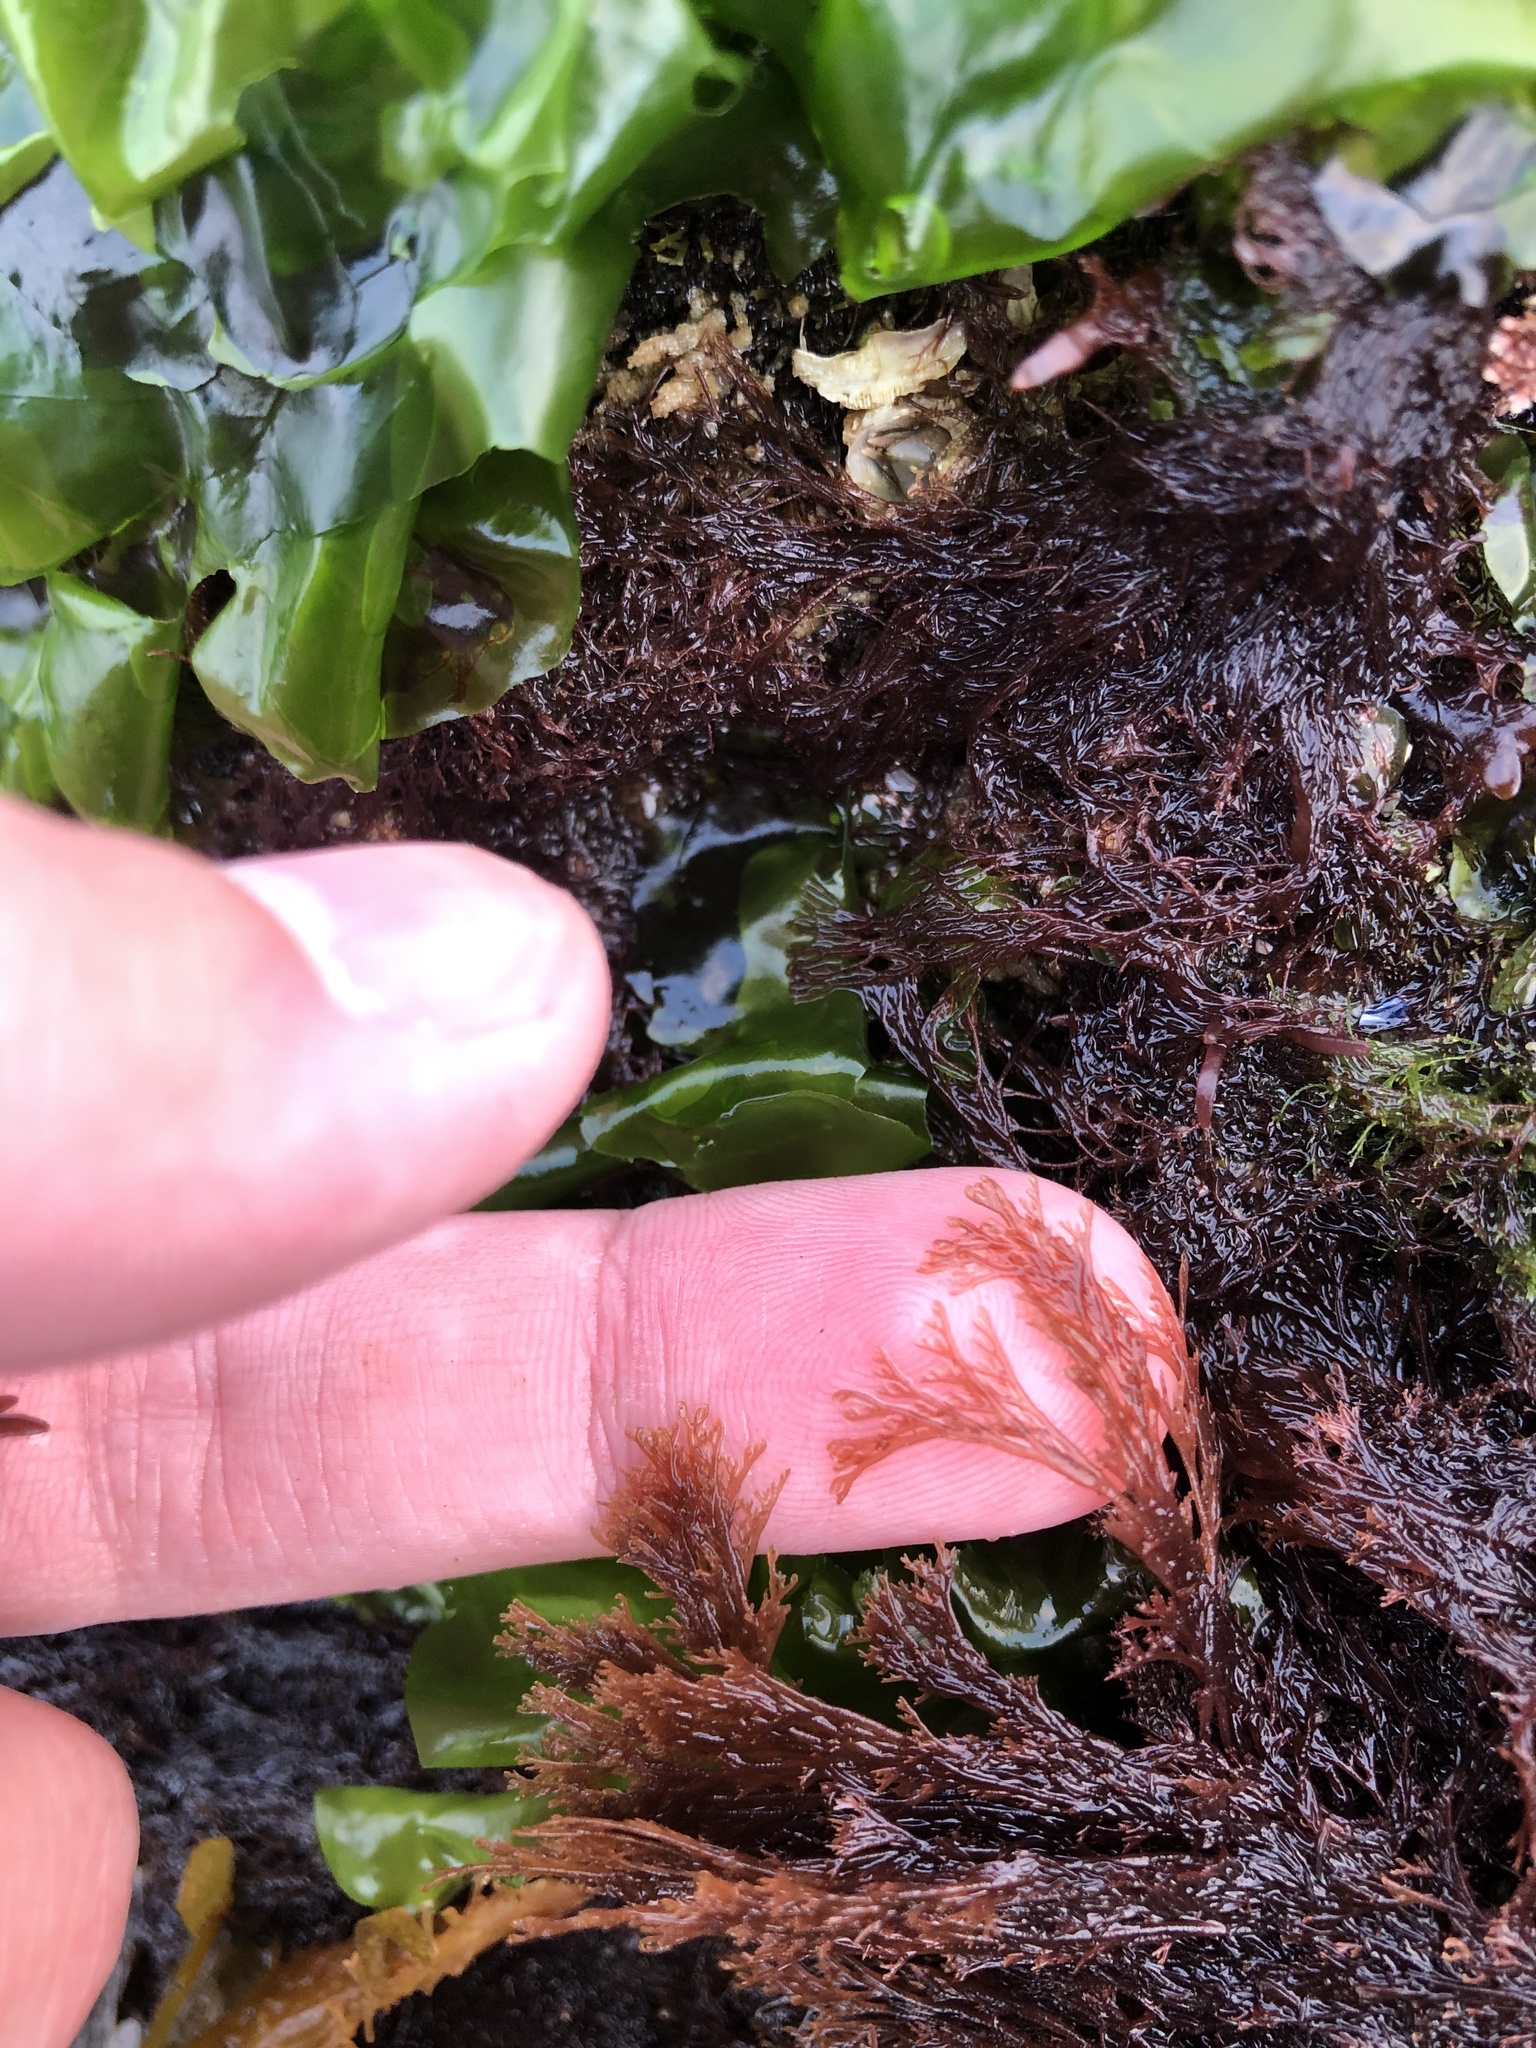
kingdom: Plantae
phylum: Rhodophyta
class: Florideophyceae
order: Ceramiales
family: Ceramiaceae
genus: Microcladia
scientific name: Microcladia borealis
